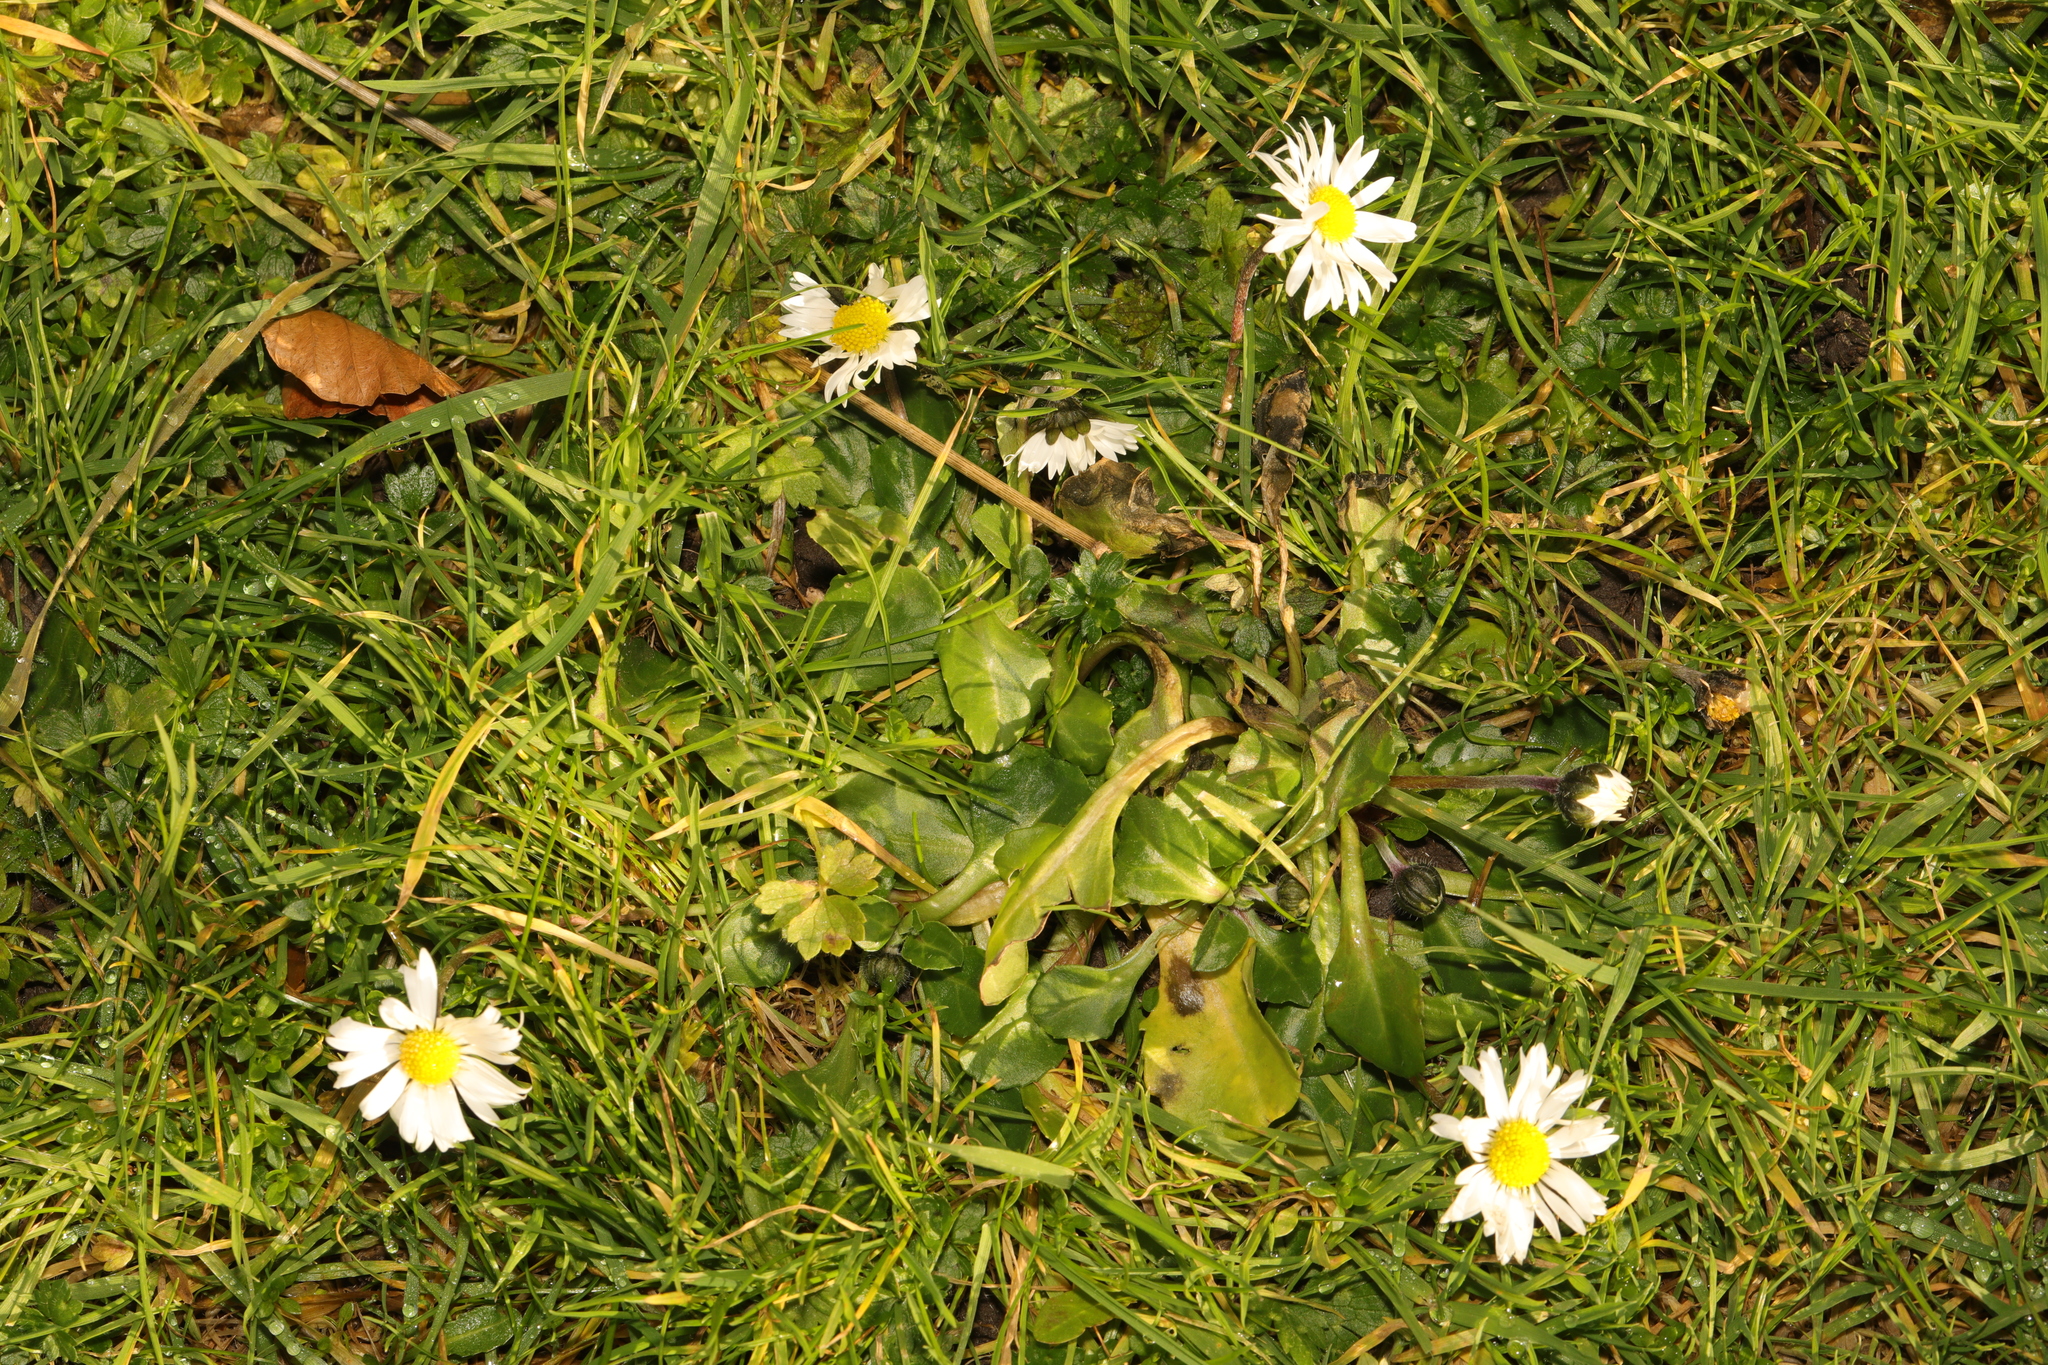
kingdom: Plantae
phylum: Tracheophyta
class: Magnoliopsida
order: Asterales
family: Asteraceae
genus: Bellis
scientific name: Bellis perennis
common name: Lawndaisy
